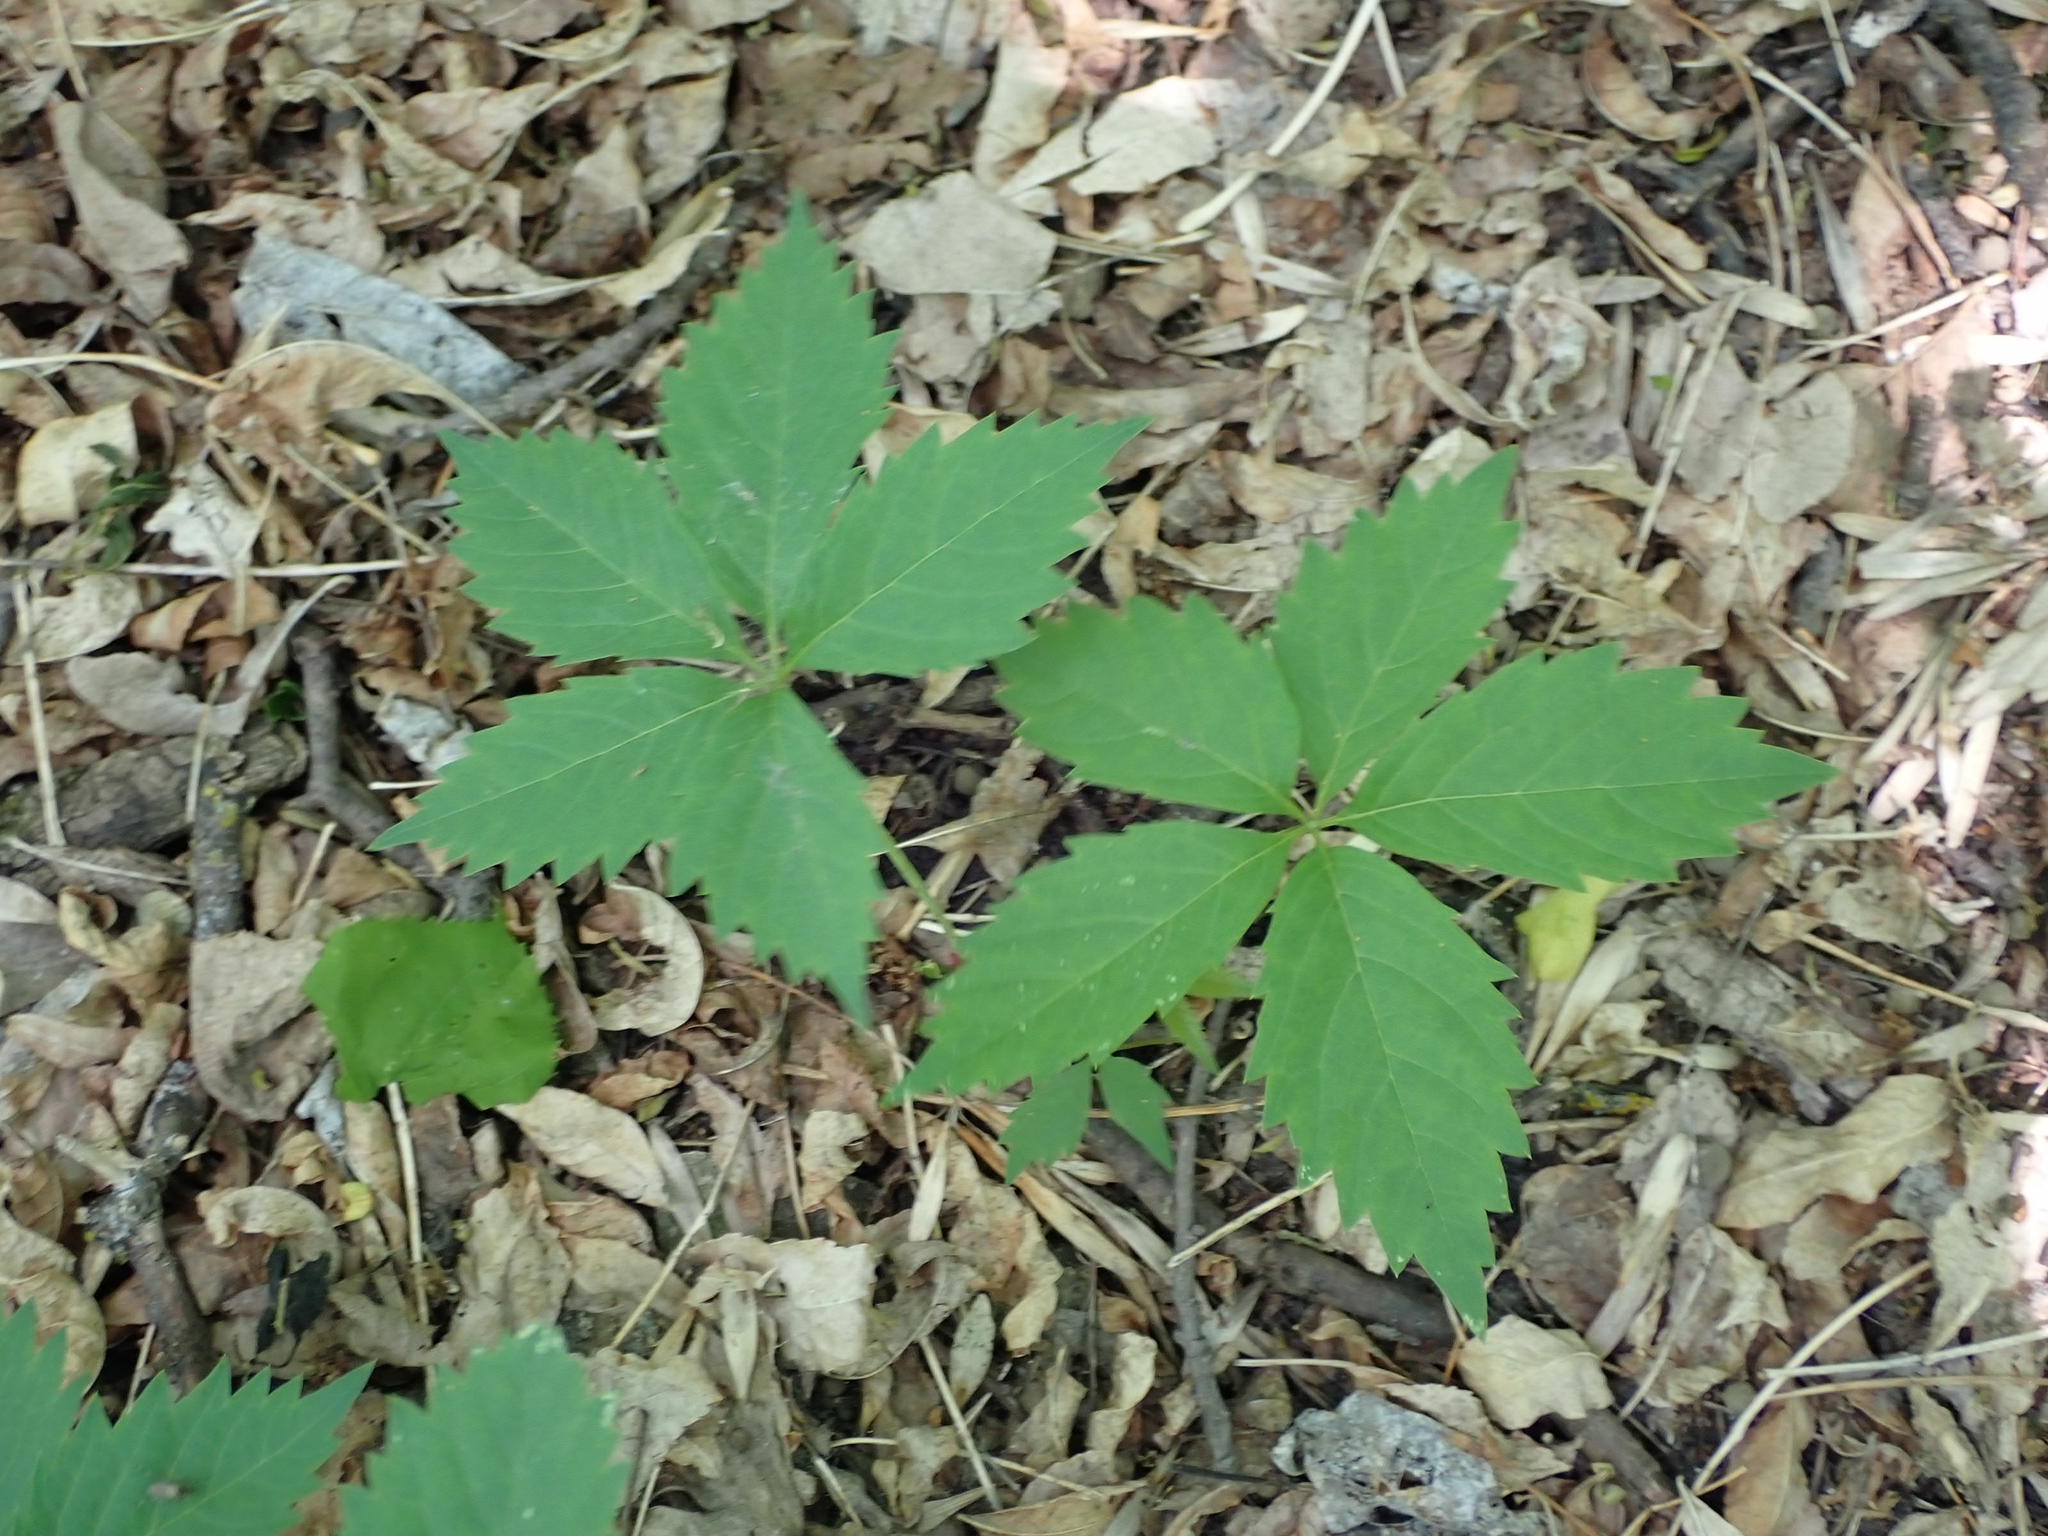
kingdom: Plantae
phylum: Tracheophyta
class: Magnoliopsida
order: Vitales
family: Vitaceae
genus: Parthenocissus
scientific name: Parthenocissus inserta
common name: False virginia-creeper
